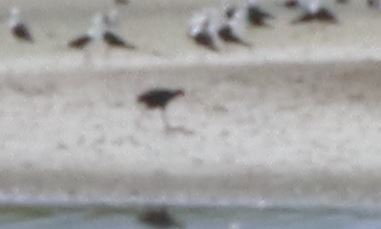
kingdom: Animalia
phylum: Chordata
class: Aves
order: Gruiformes
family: Rallidae
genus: Porphyrio
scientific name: Porphyrio melanotus
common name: Australasian swamphen
